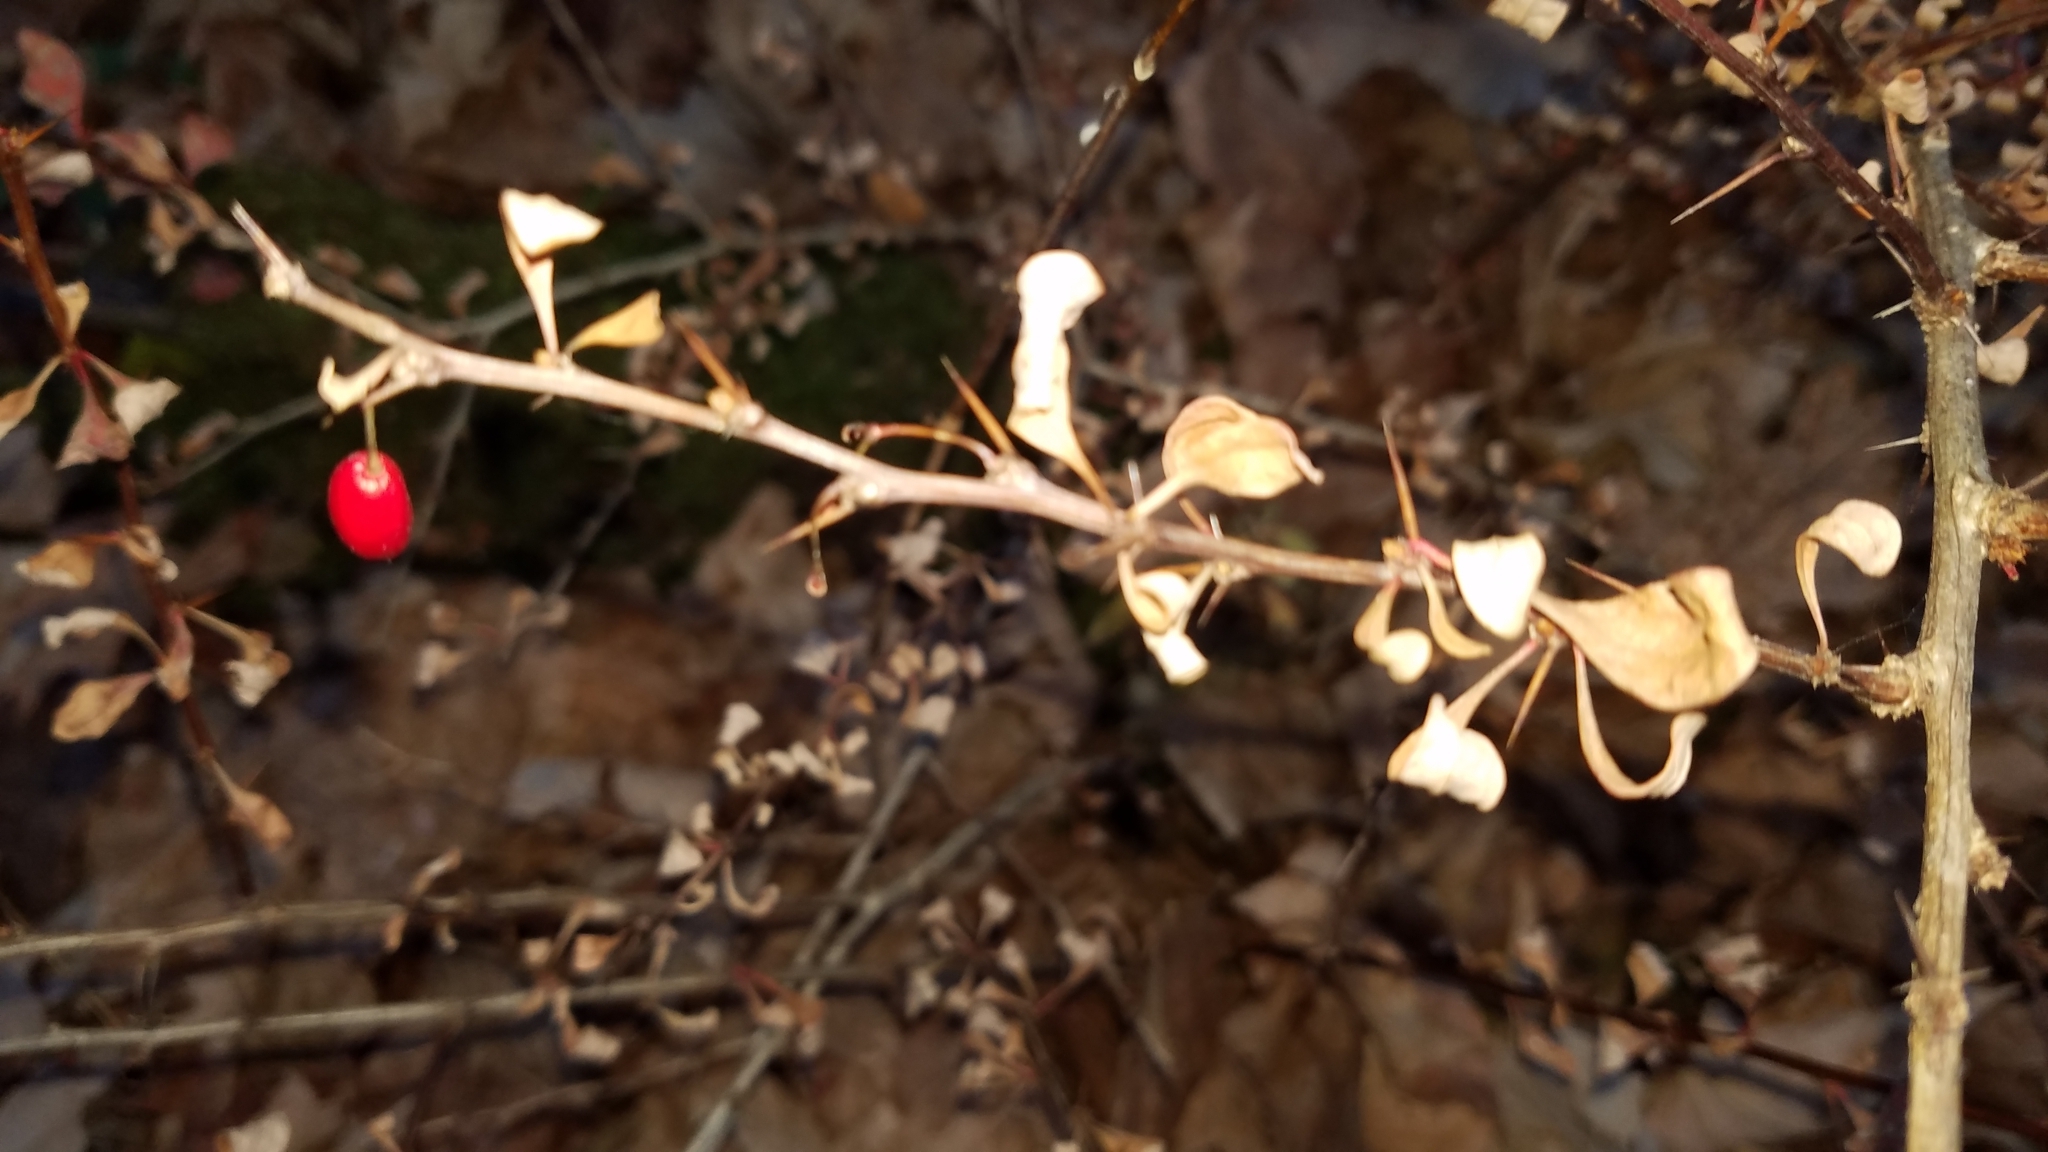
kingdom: Plantae
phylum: Tracheophyta
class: Magnoliopsida
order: Ranunculales
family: Berberidaceae
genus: Berberis
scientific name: Berberis thunbergii
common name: Japanese barberry
